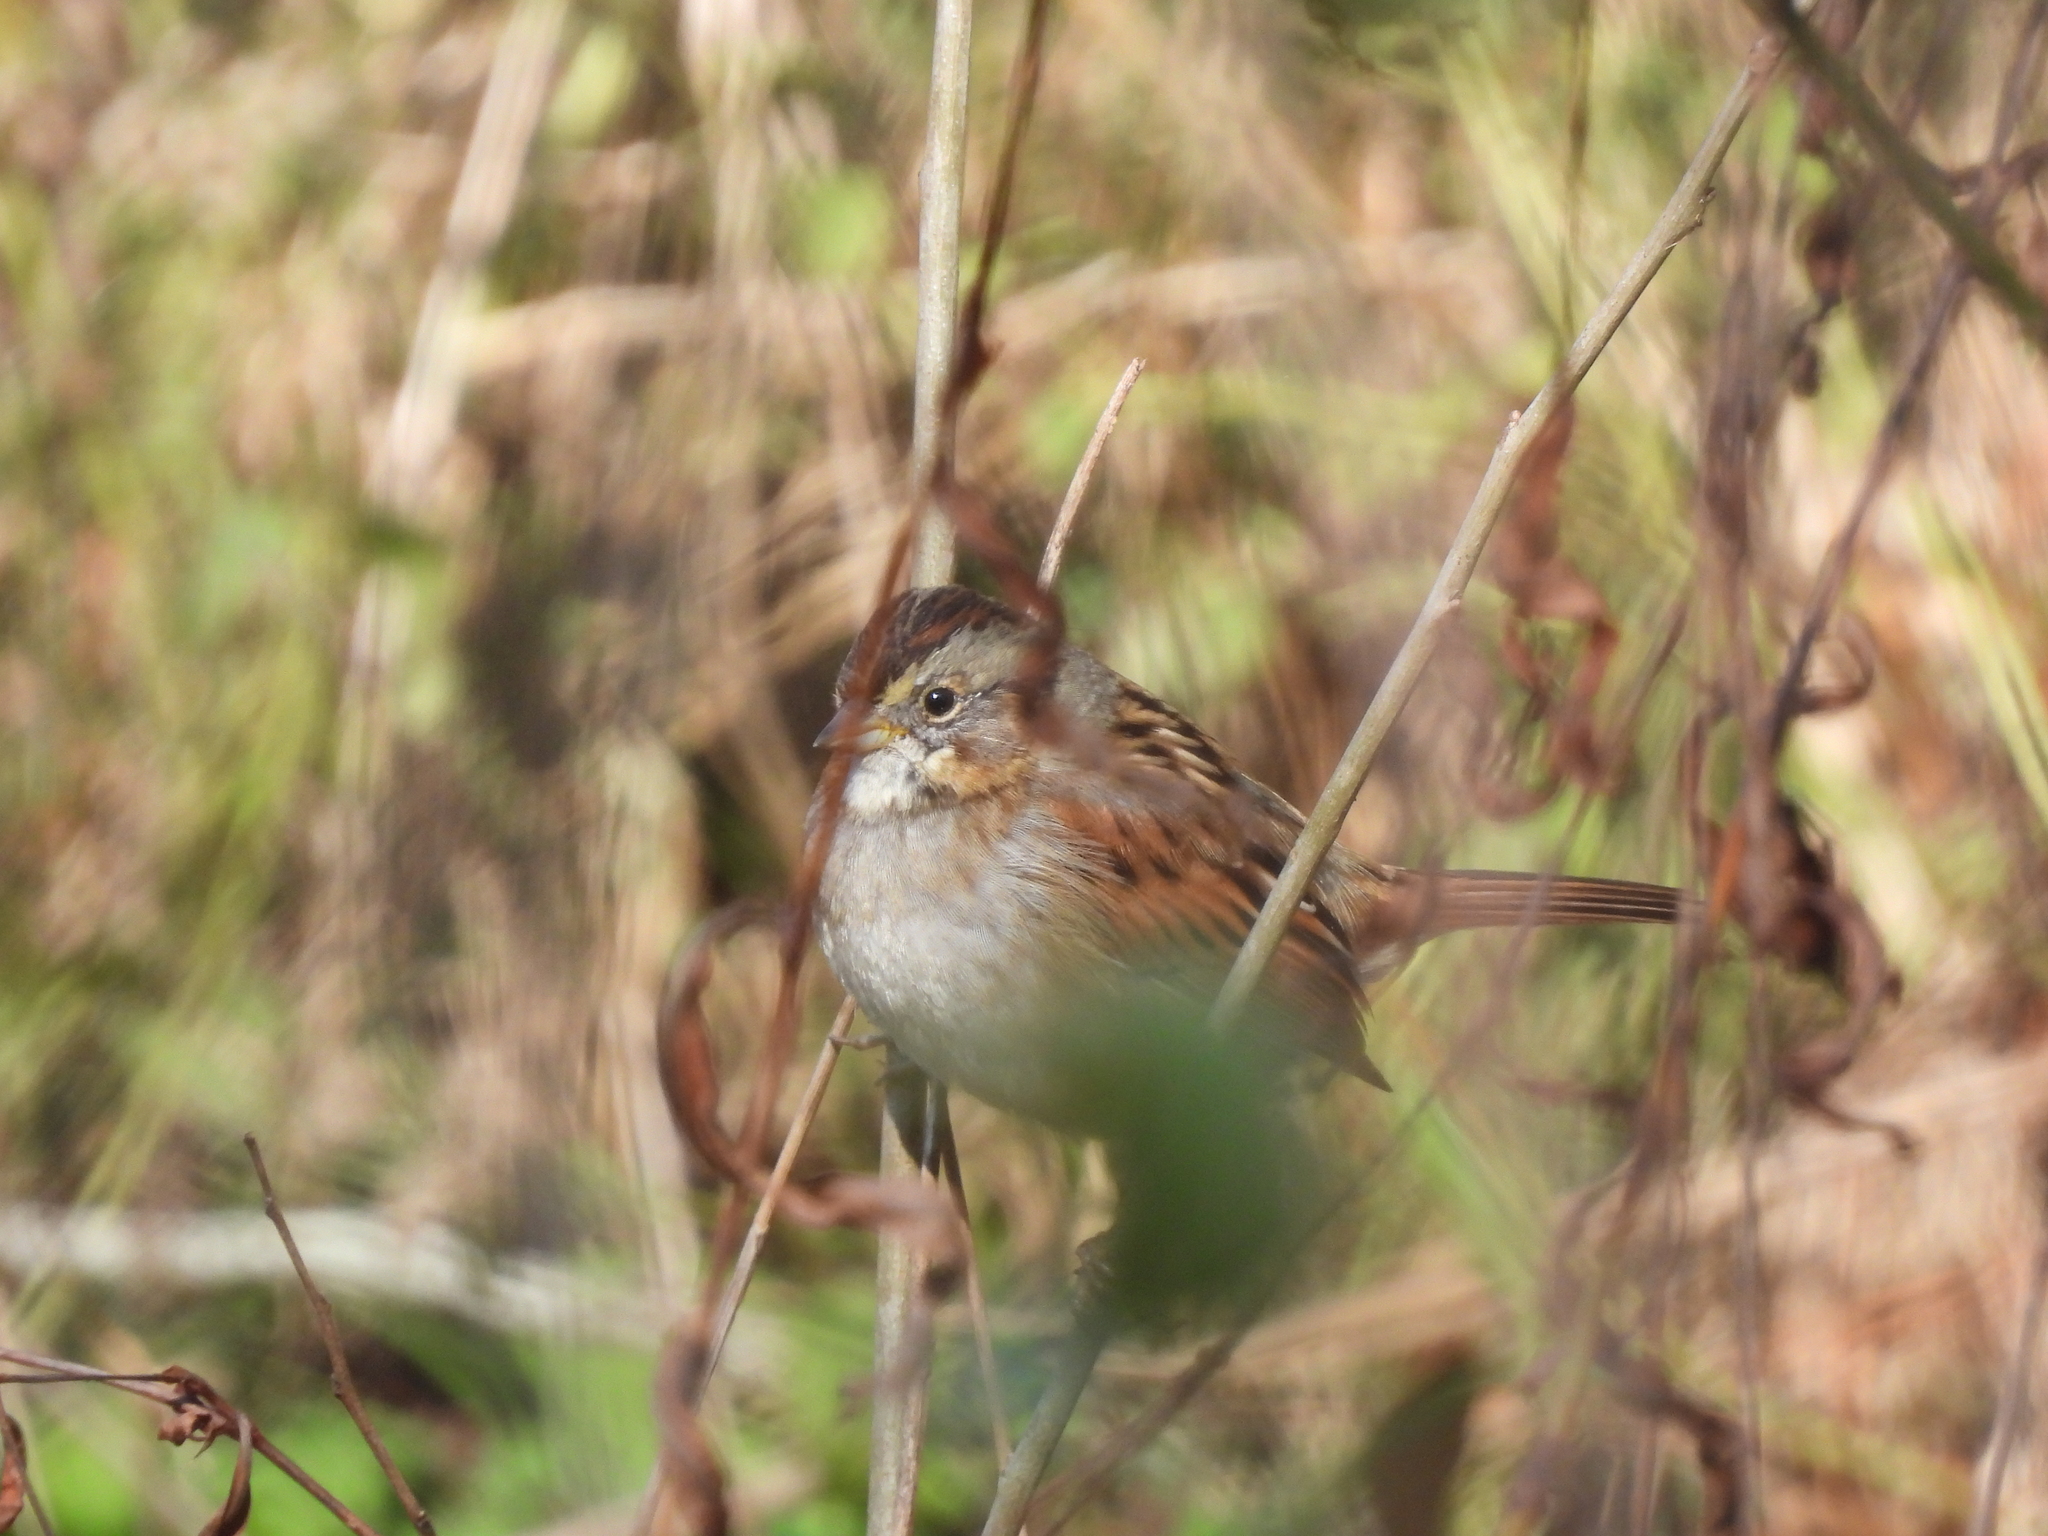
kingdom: Animalia
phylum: Chordata
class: Aves
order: Passeriformes
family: Passerellidae
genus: Melospiza
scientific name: Melospiza georgiana
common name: Swamp sparrow
